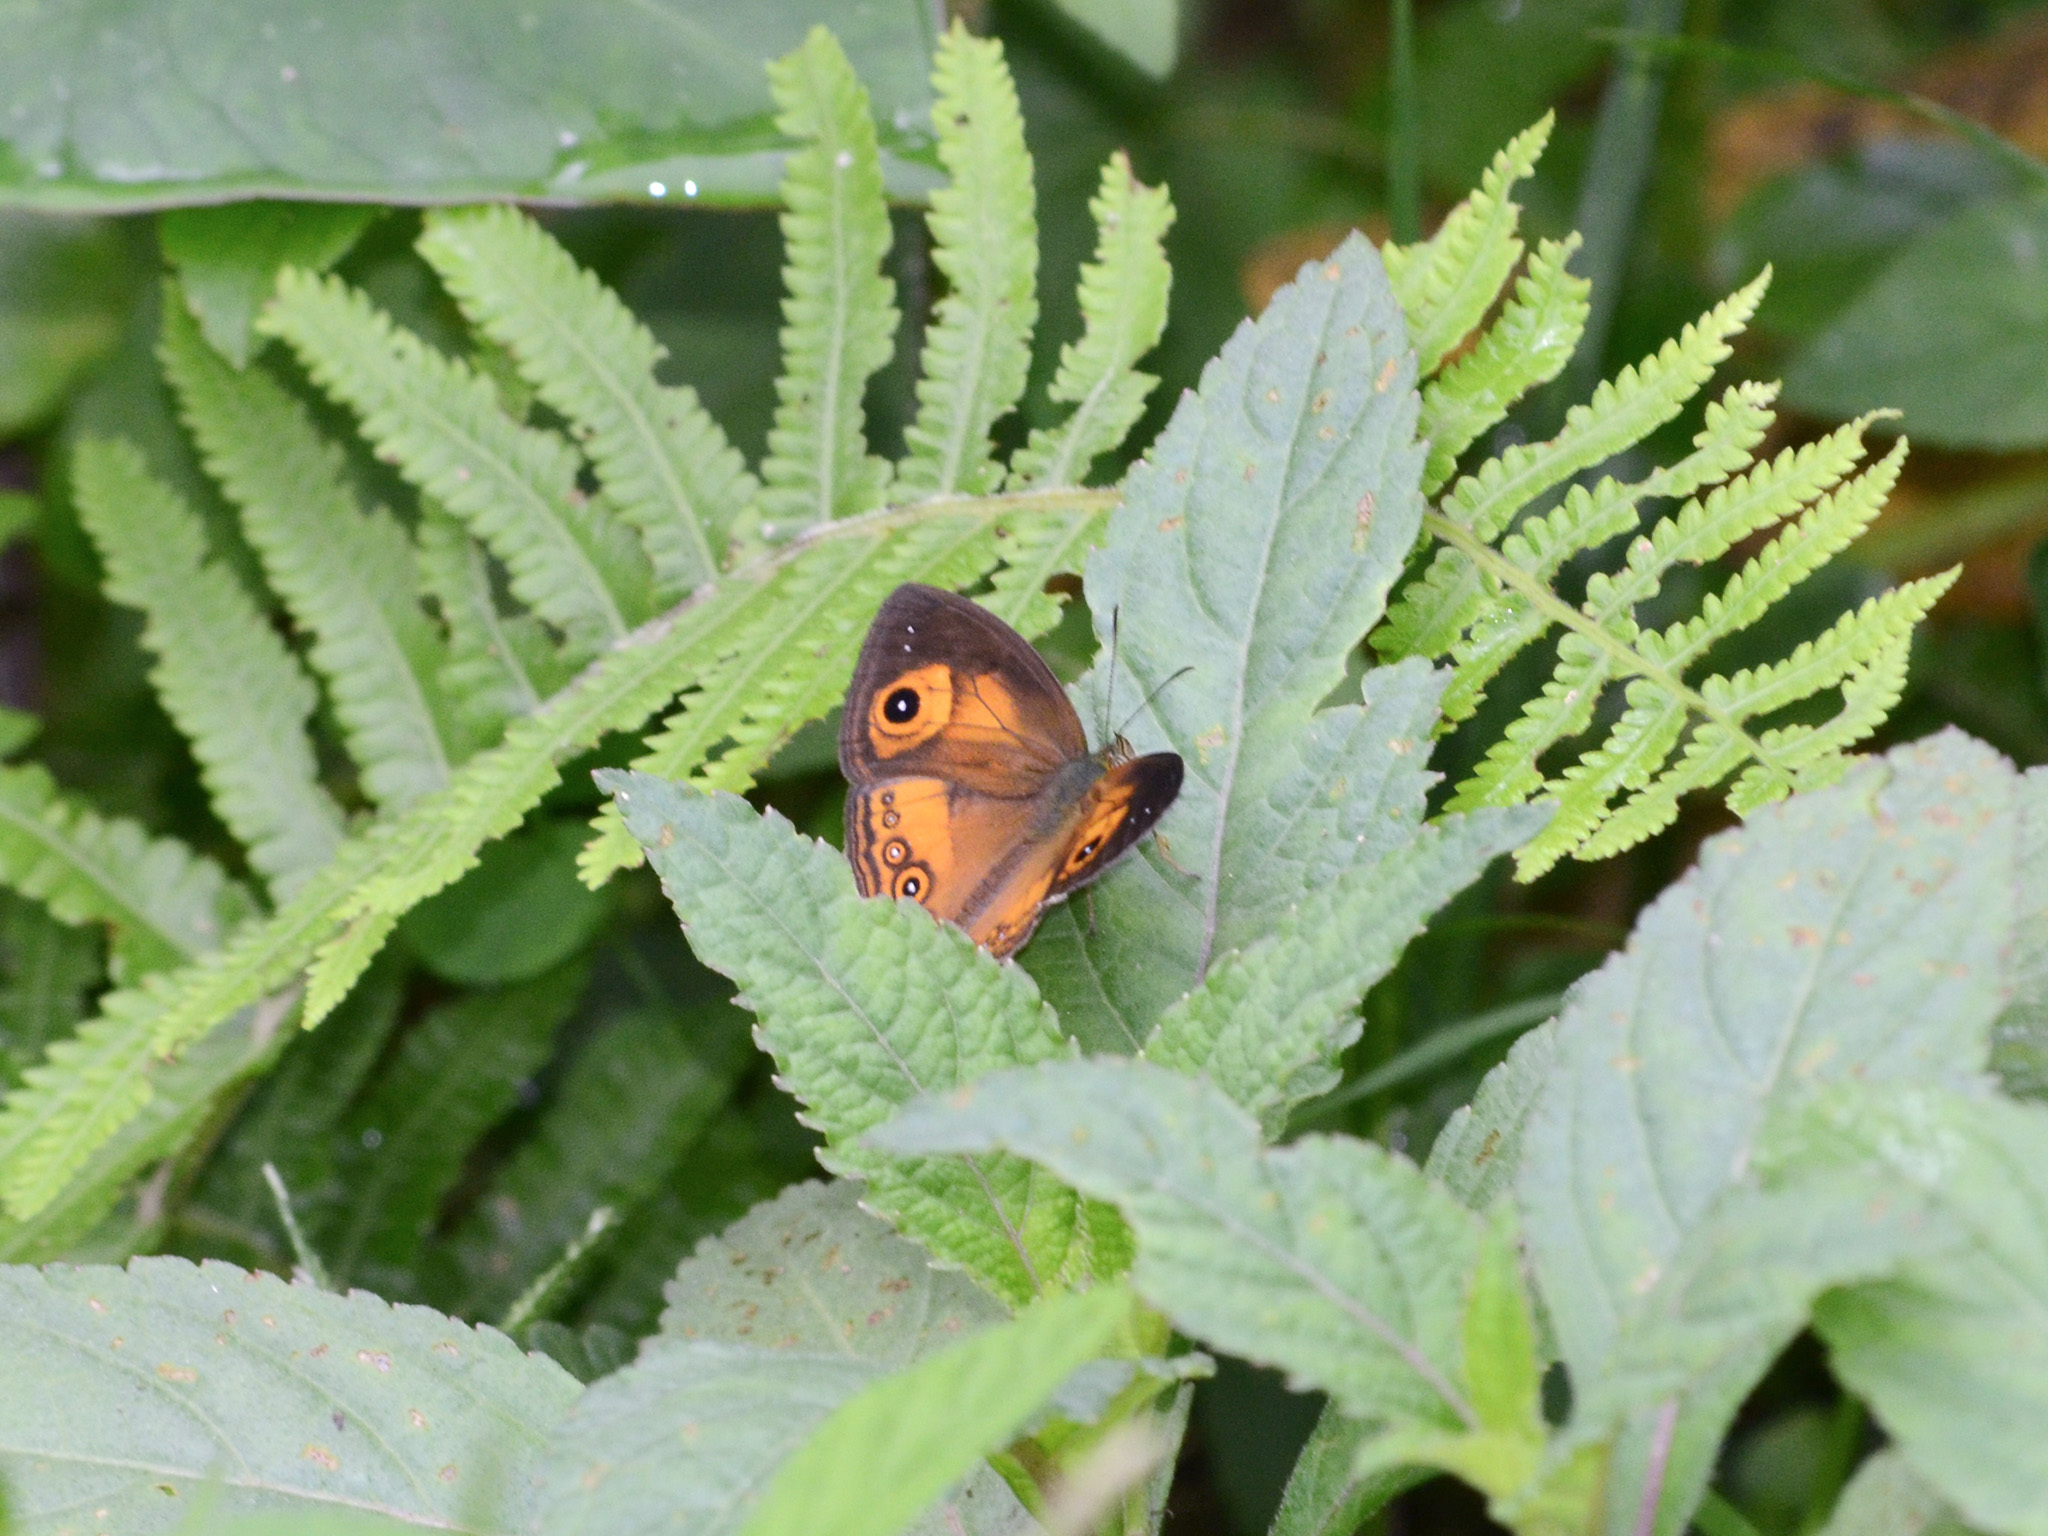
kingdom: Animalia
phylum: Arthropoda
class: Insecta
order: Lepidoptera
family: Nymphalidae
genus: Mycalesis
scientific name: Mycalesis ita
